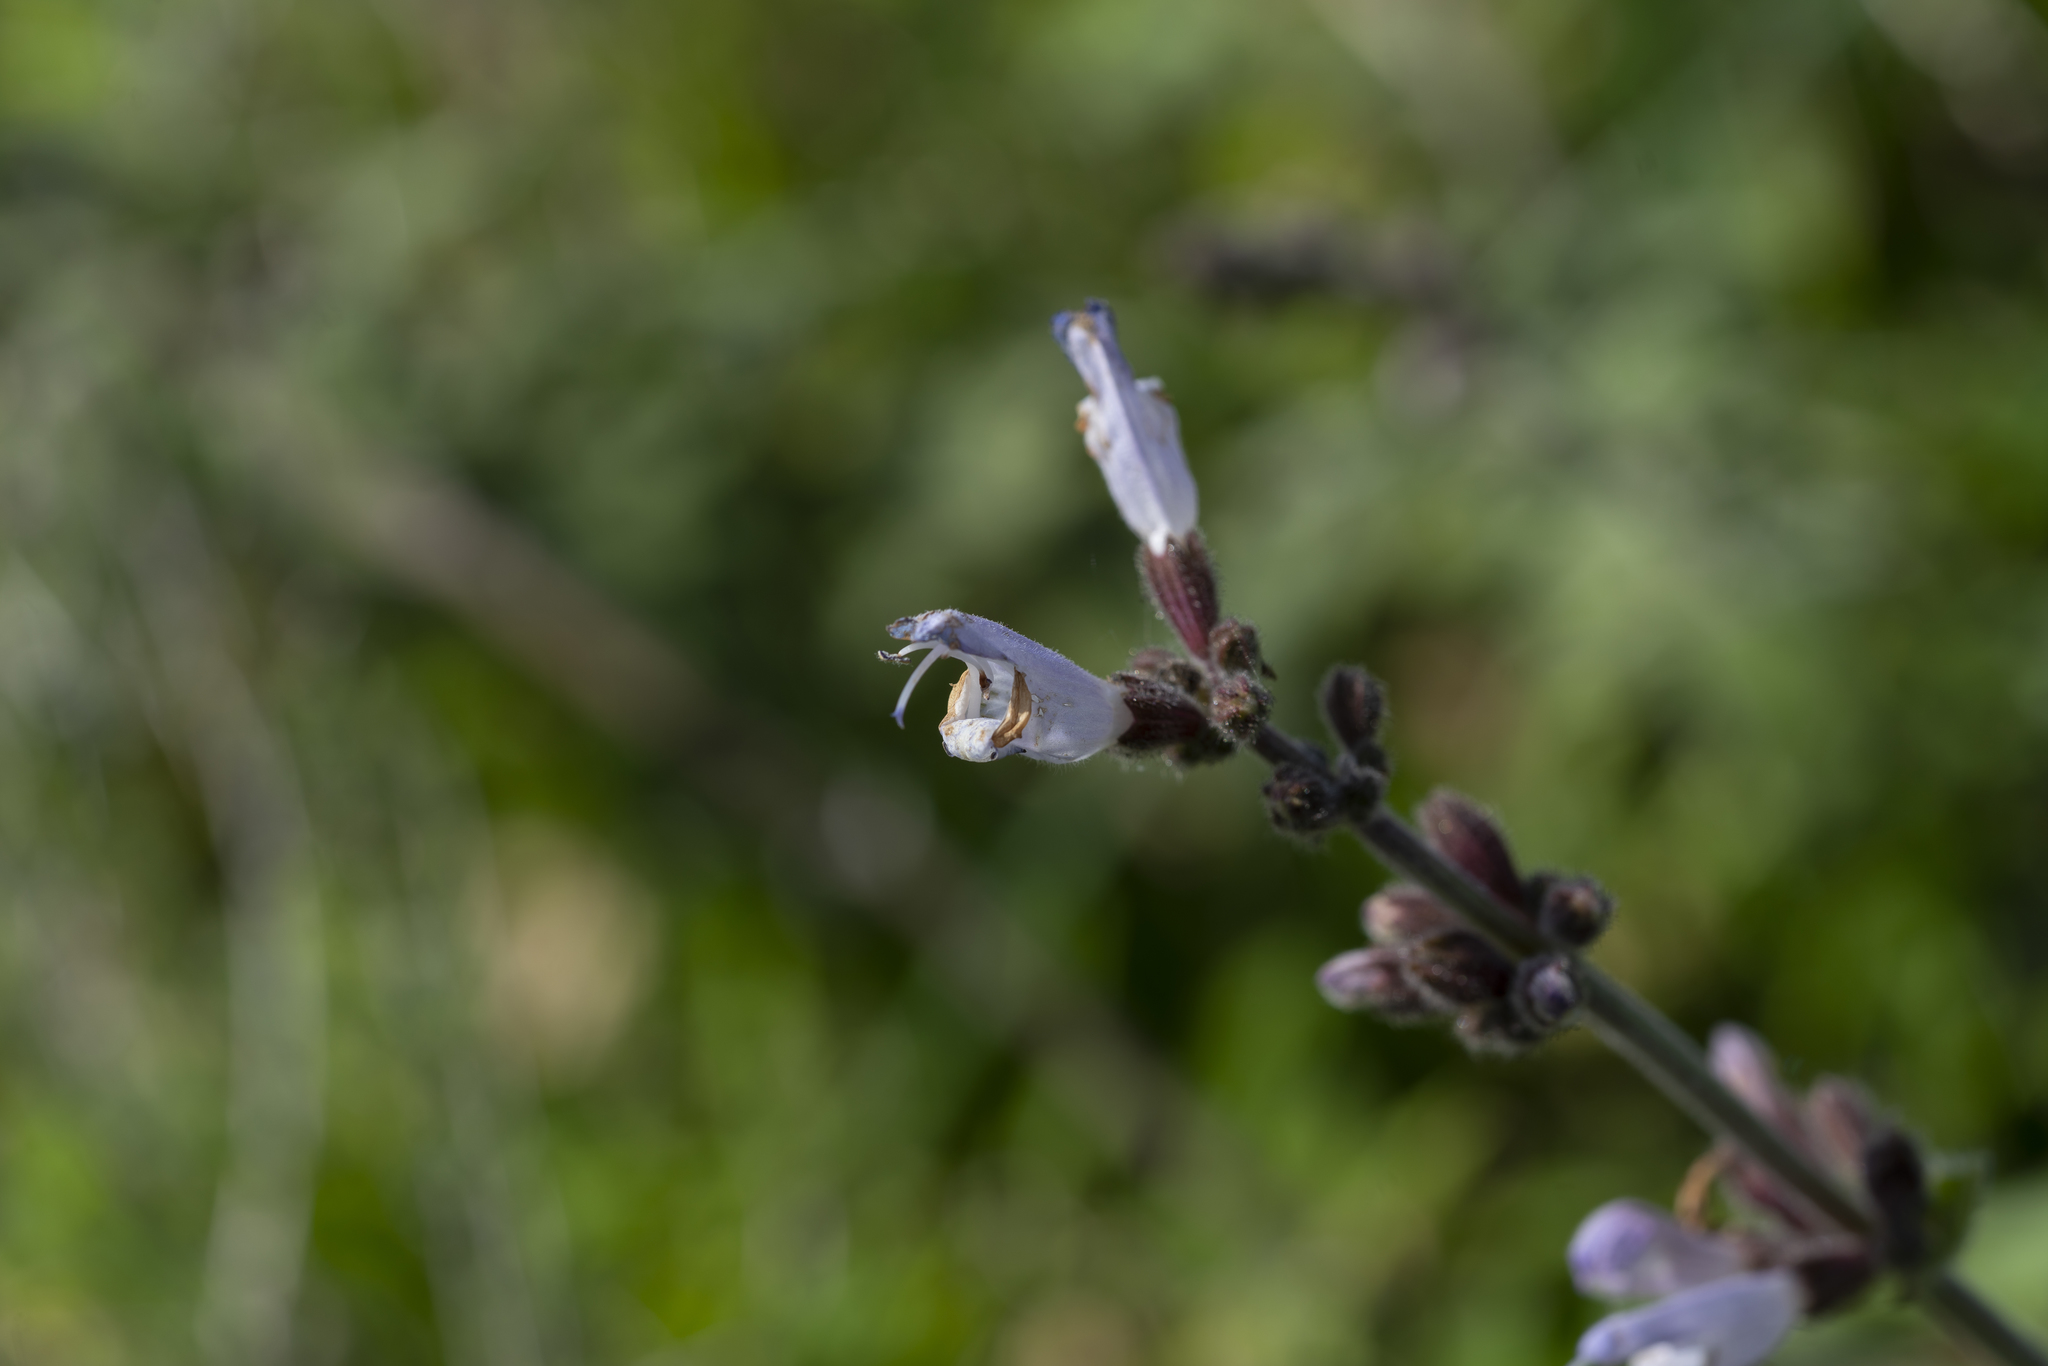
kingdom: Plantae
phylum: Tracheophyta
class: Magnoliopsida
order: Lamiales
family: Lamiaceae
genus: Salvia
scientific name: Salvia fruticosa
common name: Greek sage
